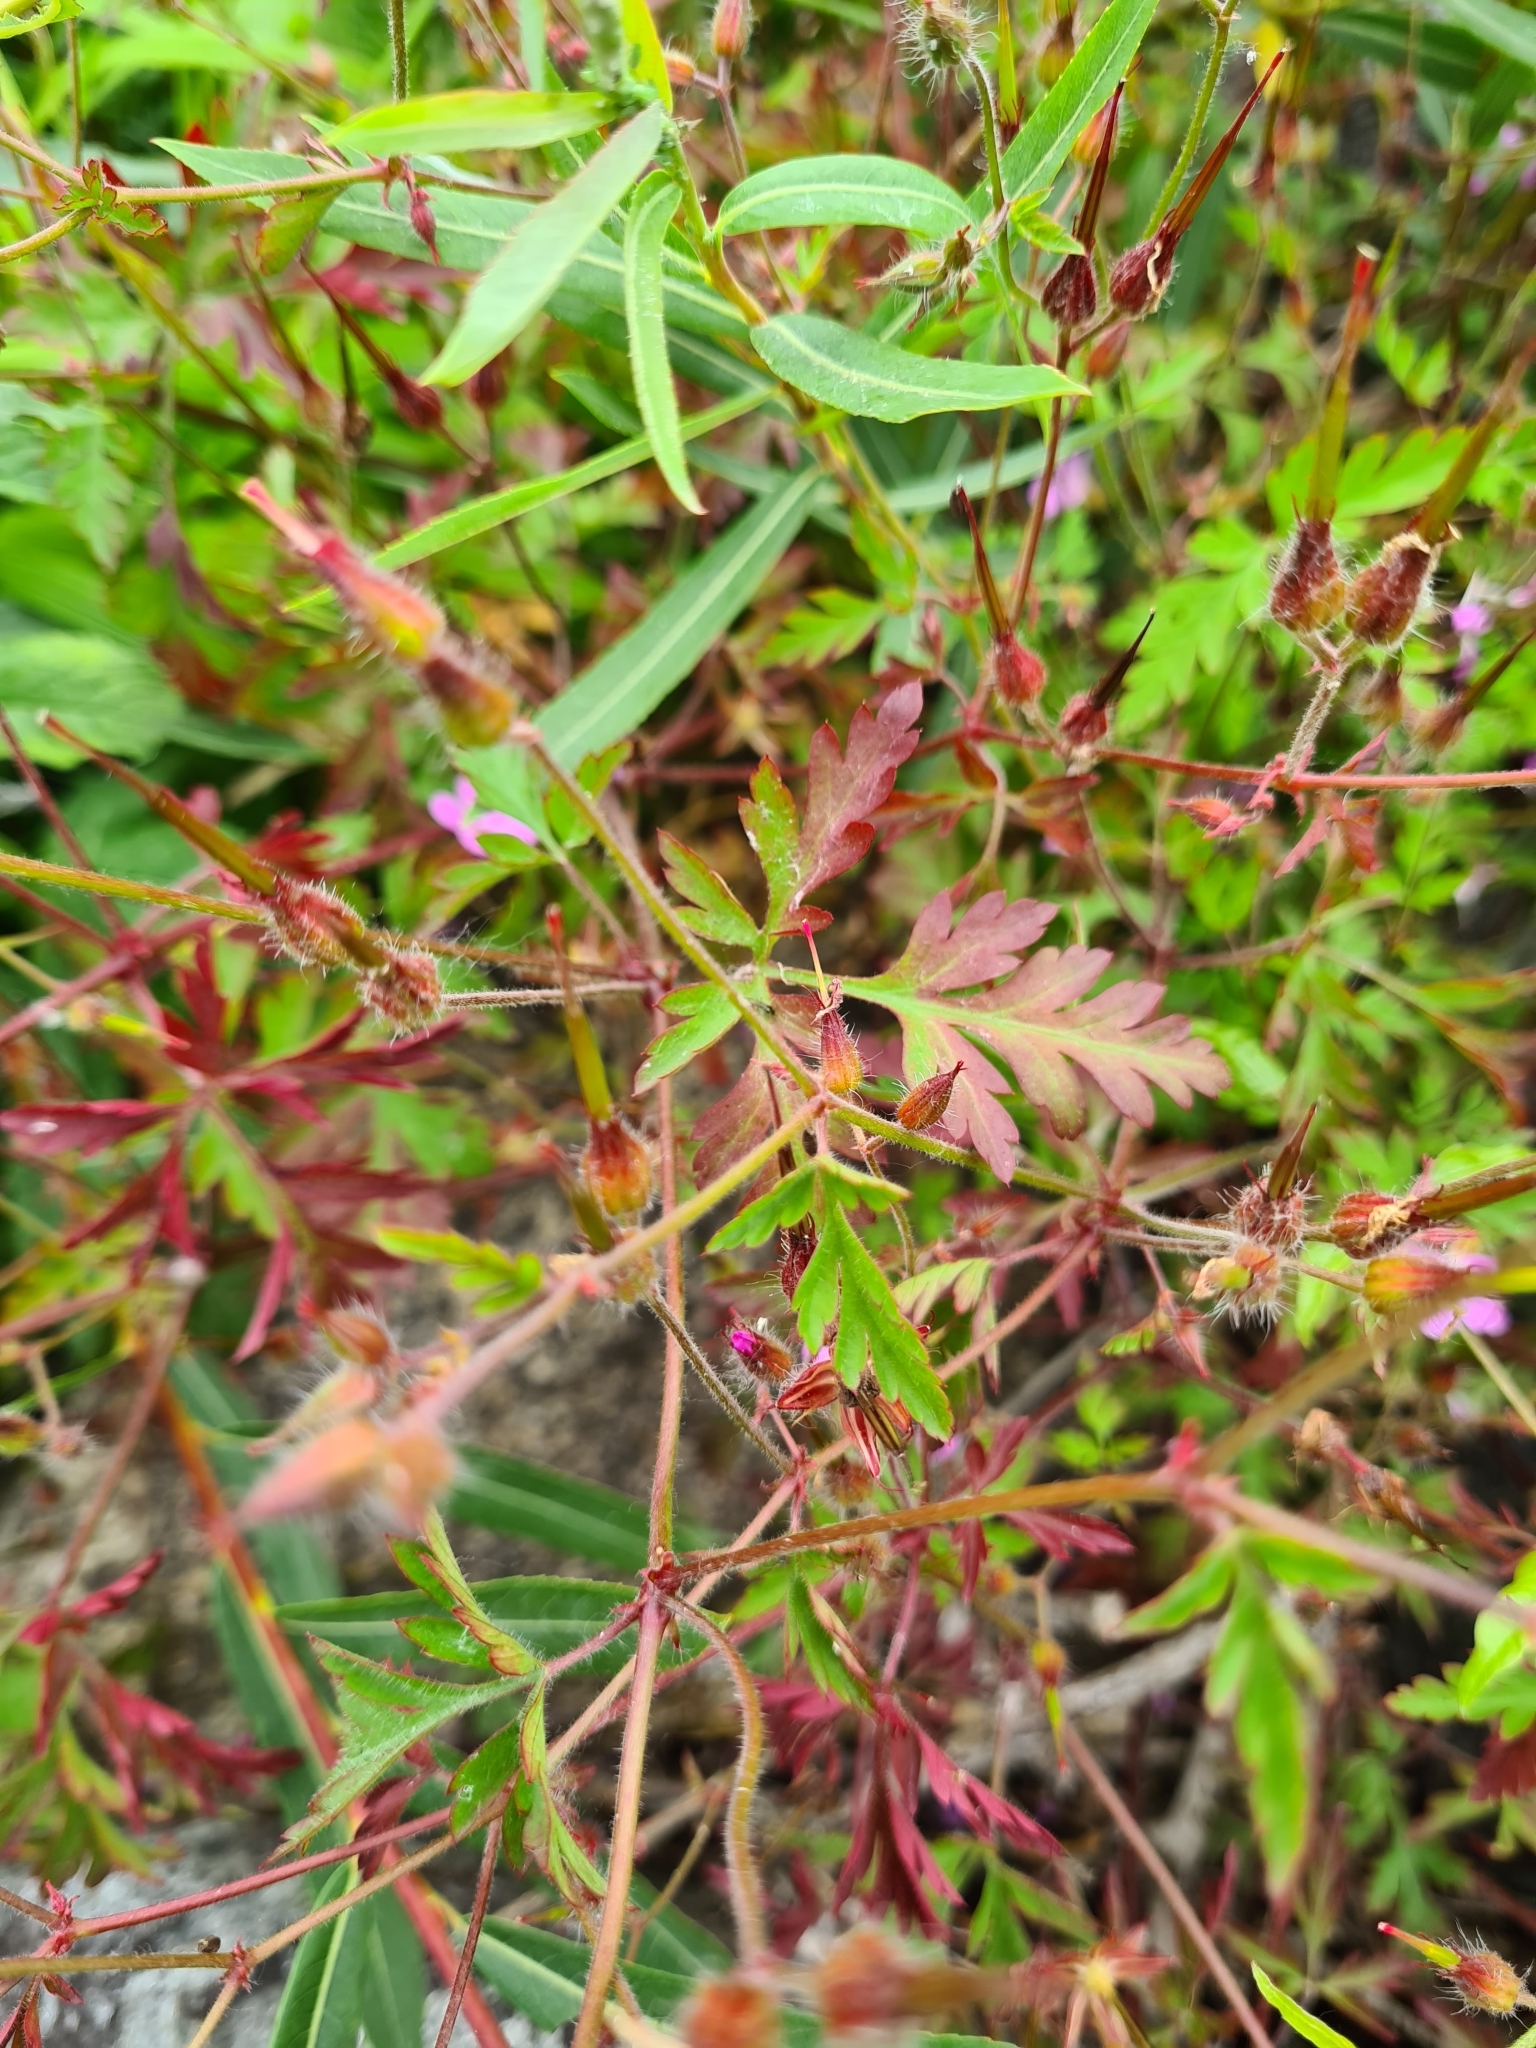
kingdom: Plantae
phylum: Tracheophyta
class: Magnoliopsida
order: Geraniales
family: Geraniaceae
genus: Geranium
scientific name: Geranium robertianum
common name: Herb-robert
